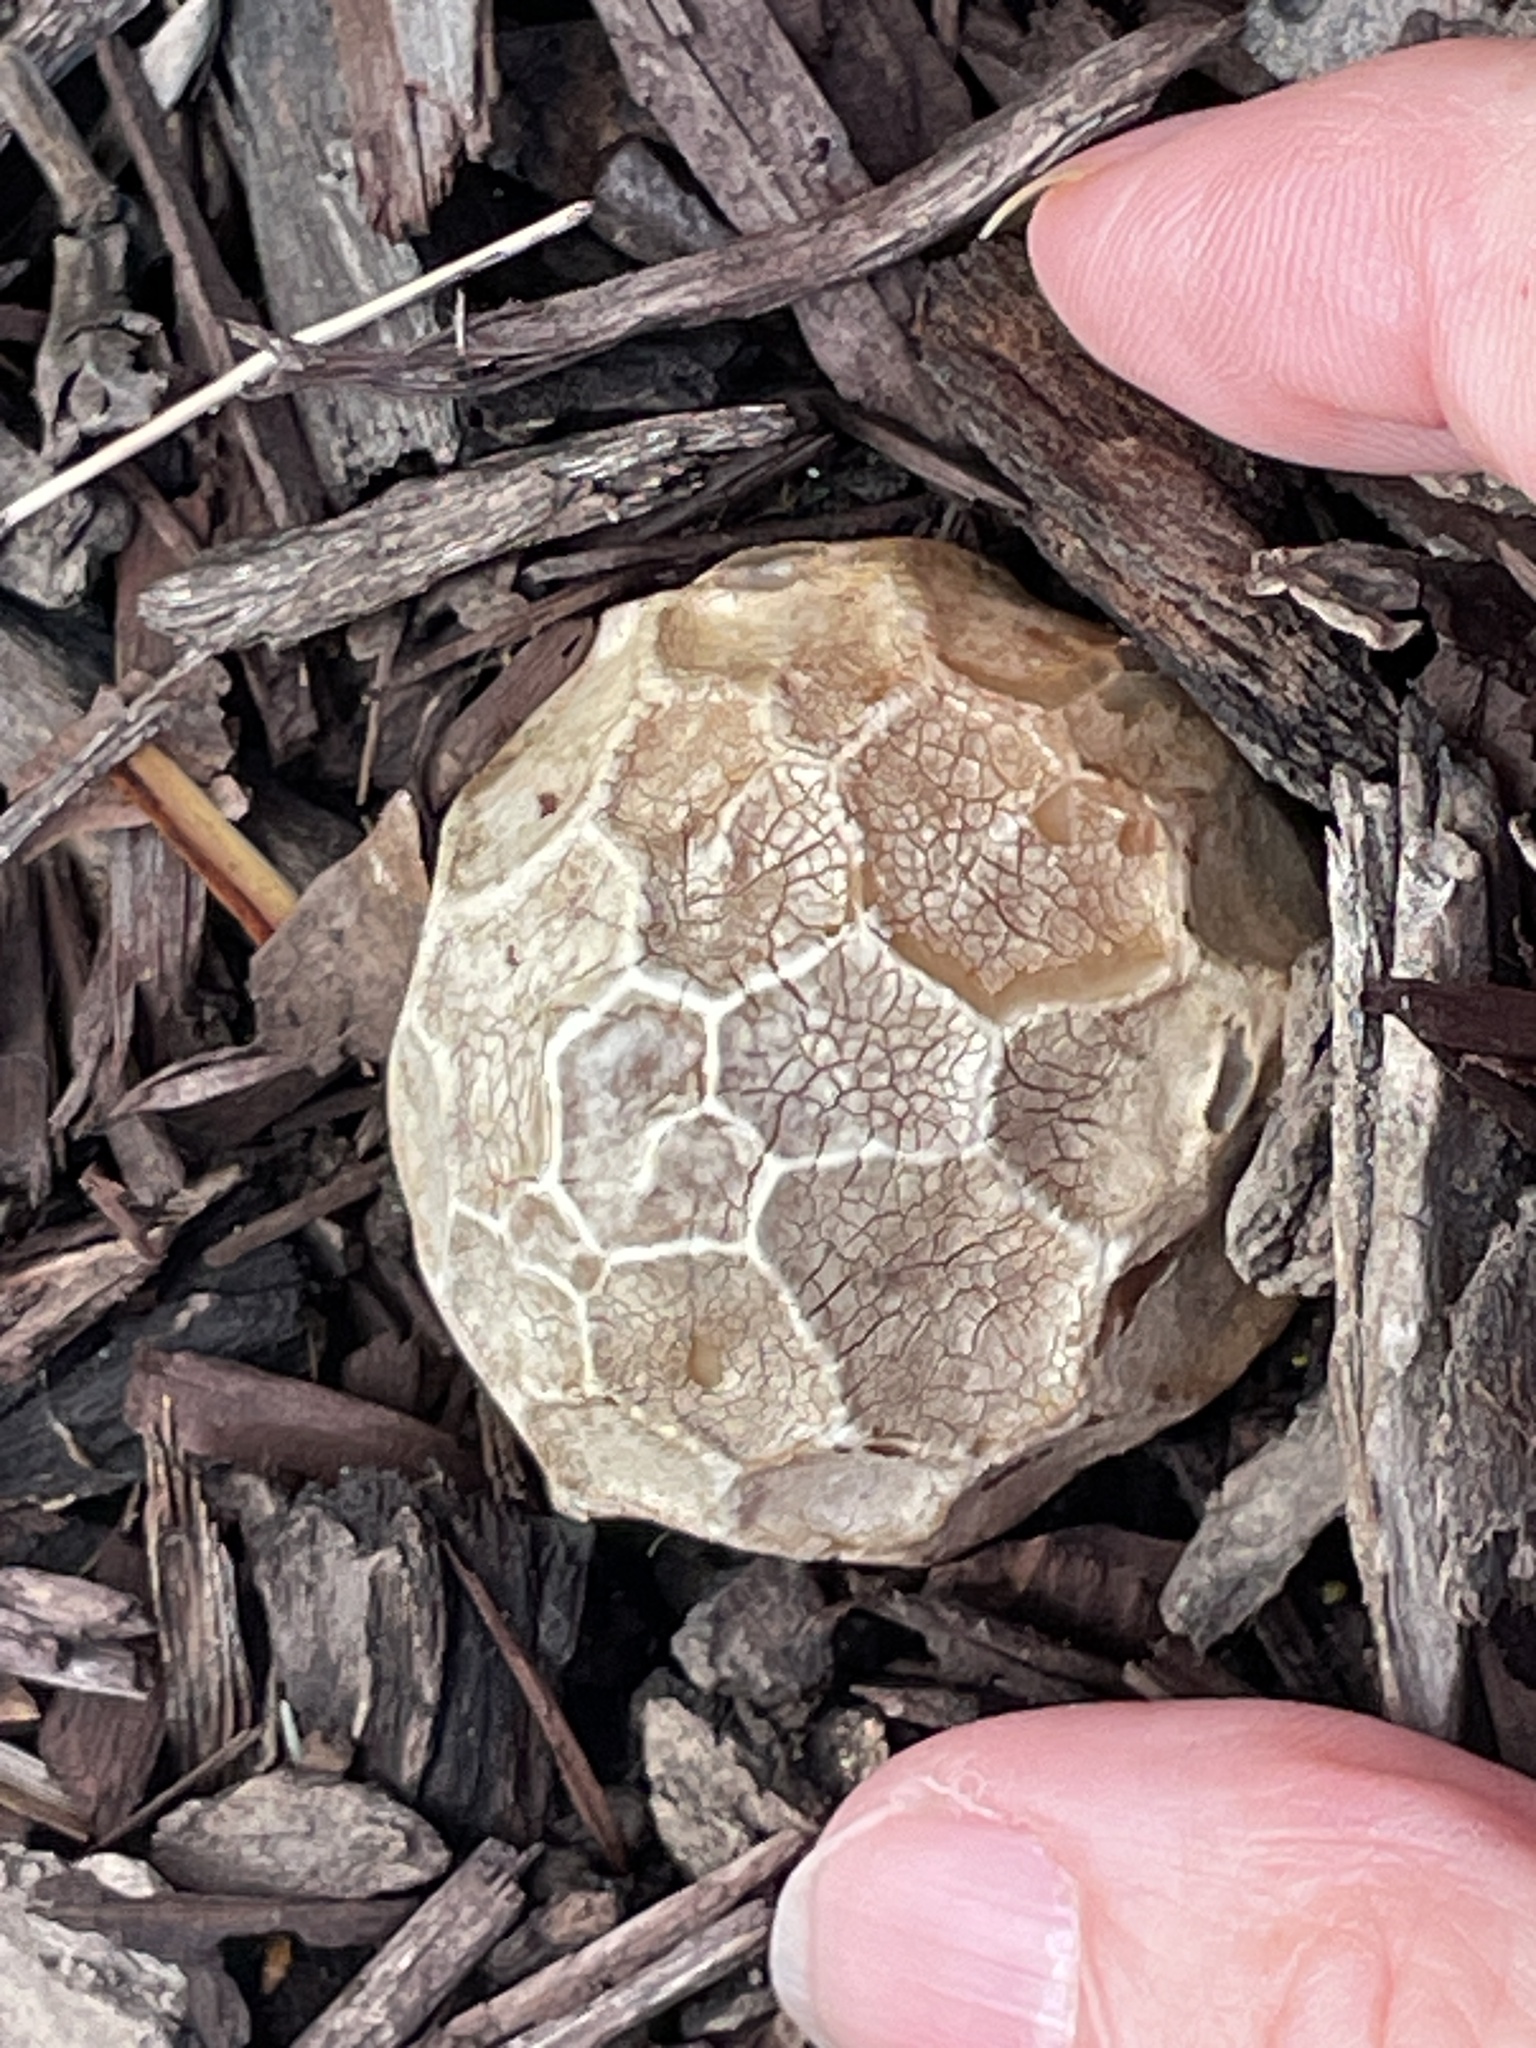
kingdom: Fungi
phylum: Basidiomycota
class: Agaricomycetes
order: Phallales
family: Phallaceae
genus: Clathrus
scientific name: Clathrus ruber
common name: Red cage
